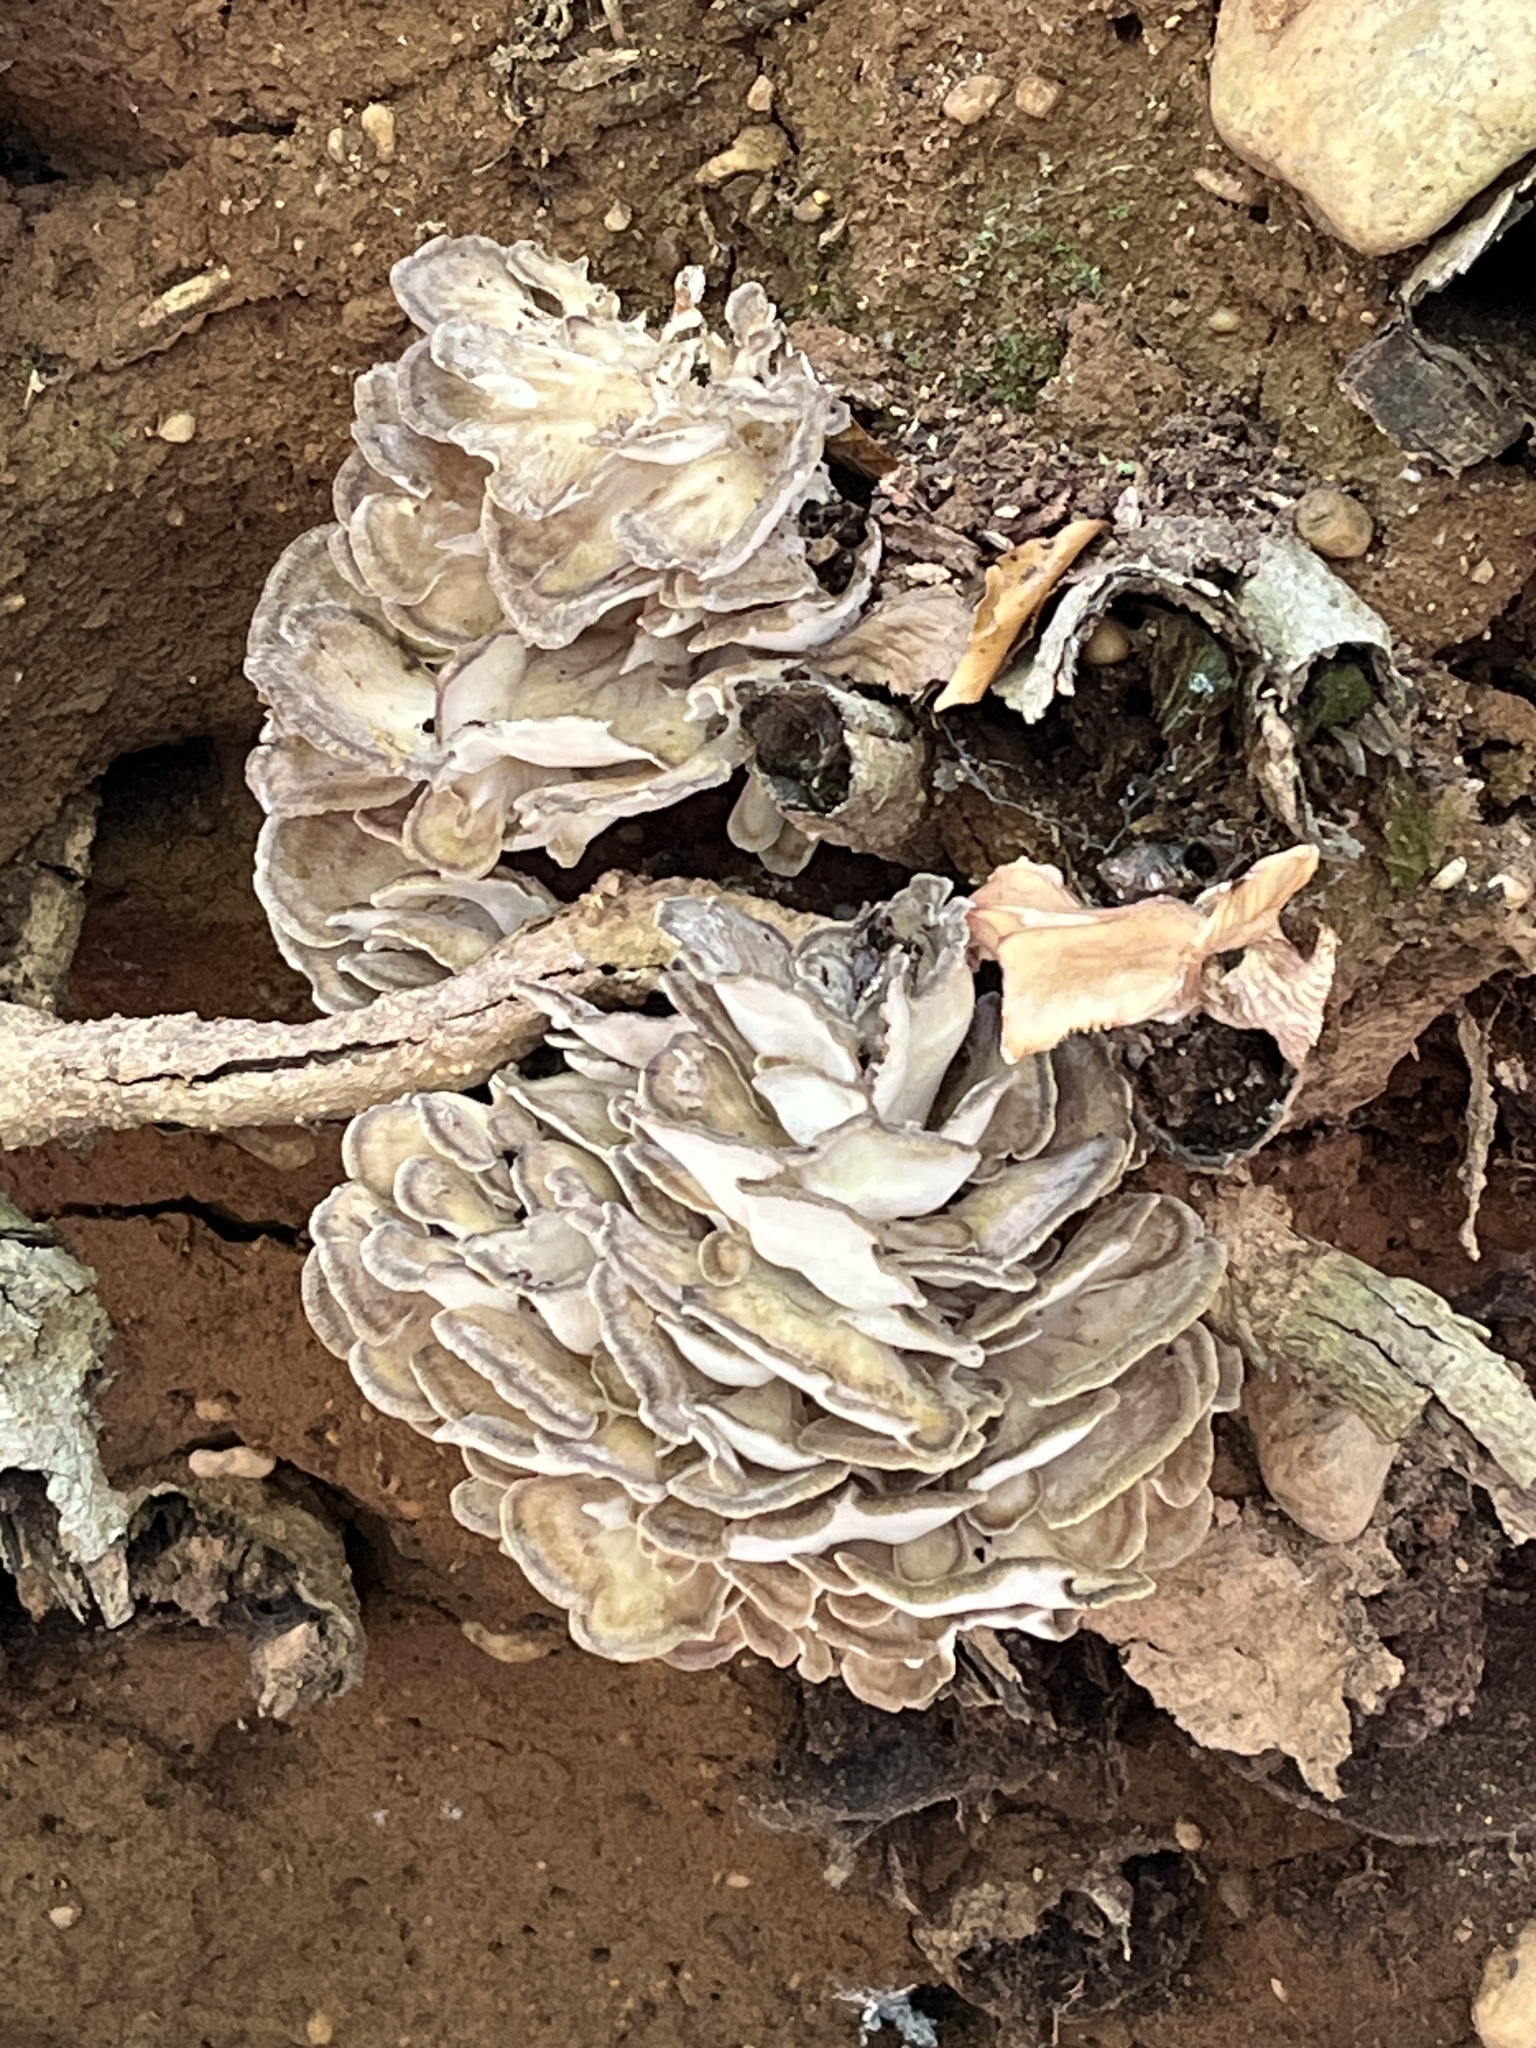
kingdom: Fungi
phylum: Basidiomycota
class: Agaricomycetes
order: Polyporales
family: Grifolaceae
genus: Grifola
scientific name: Grifola frondosa
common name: Hen of the woods
